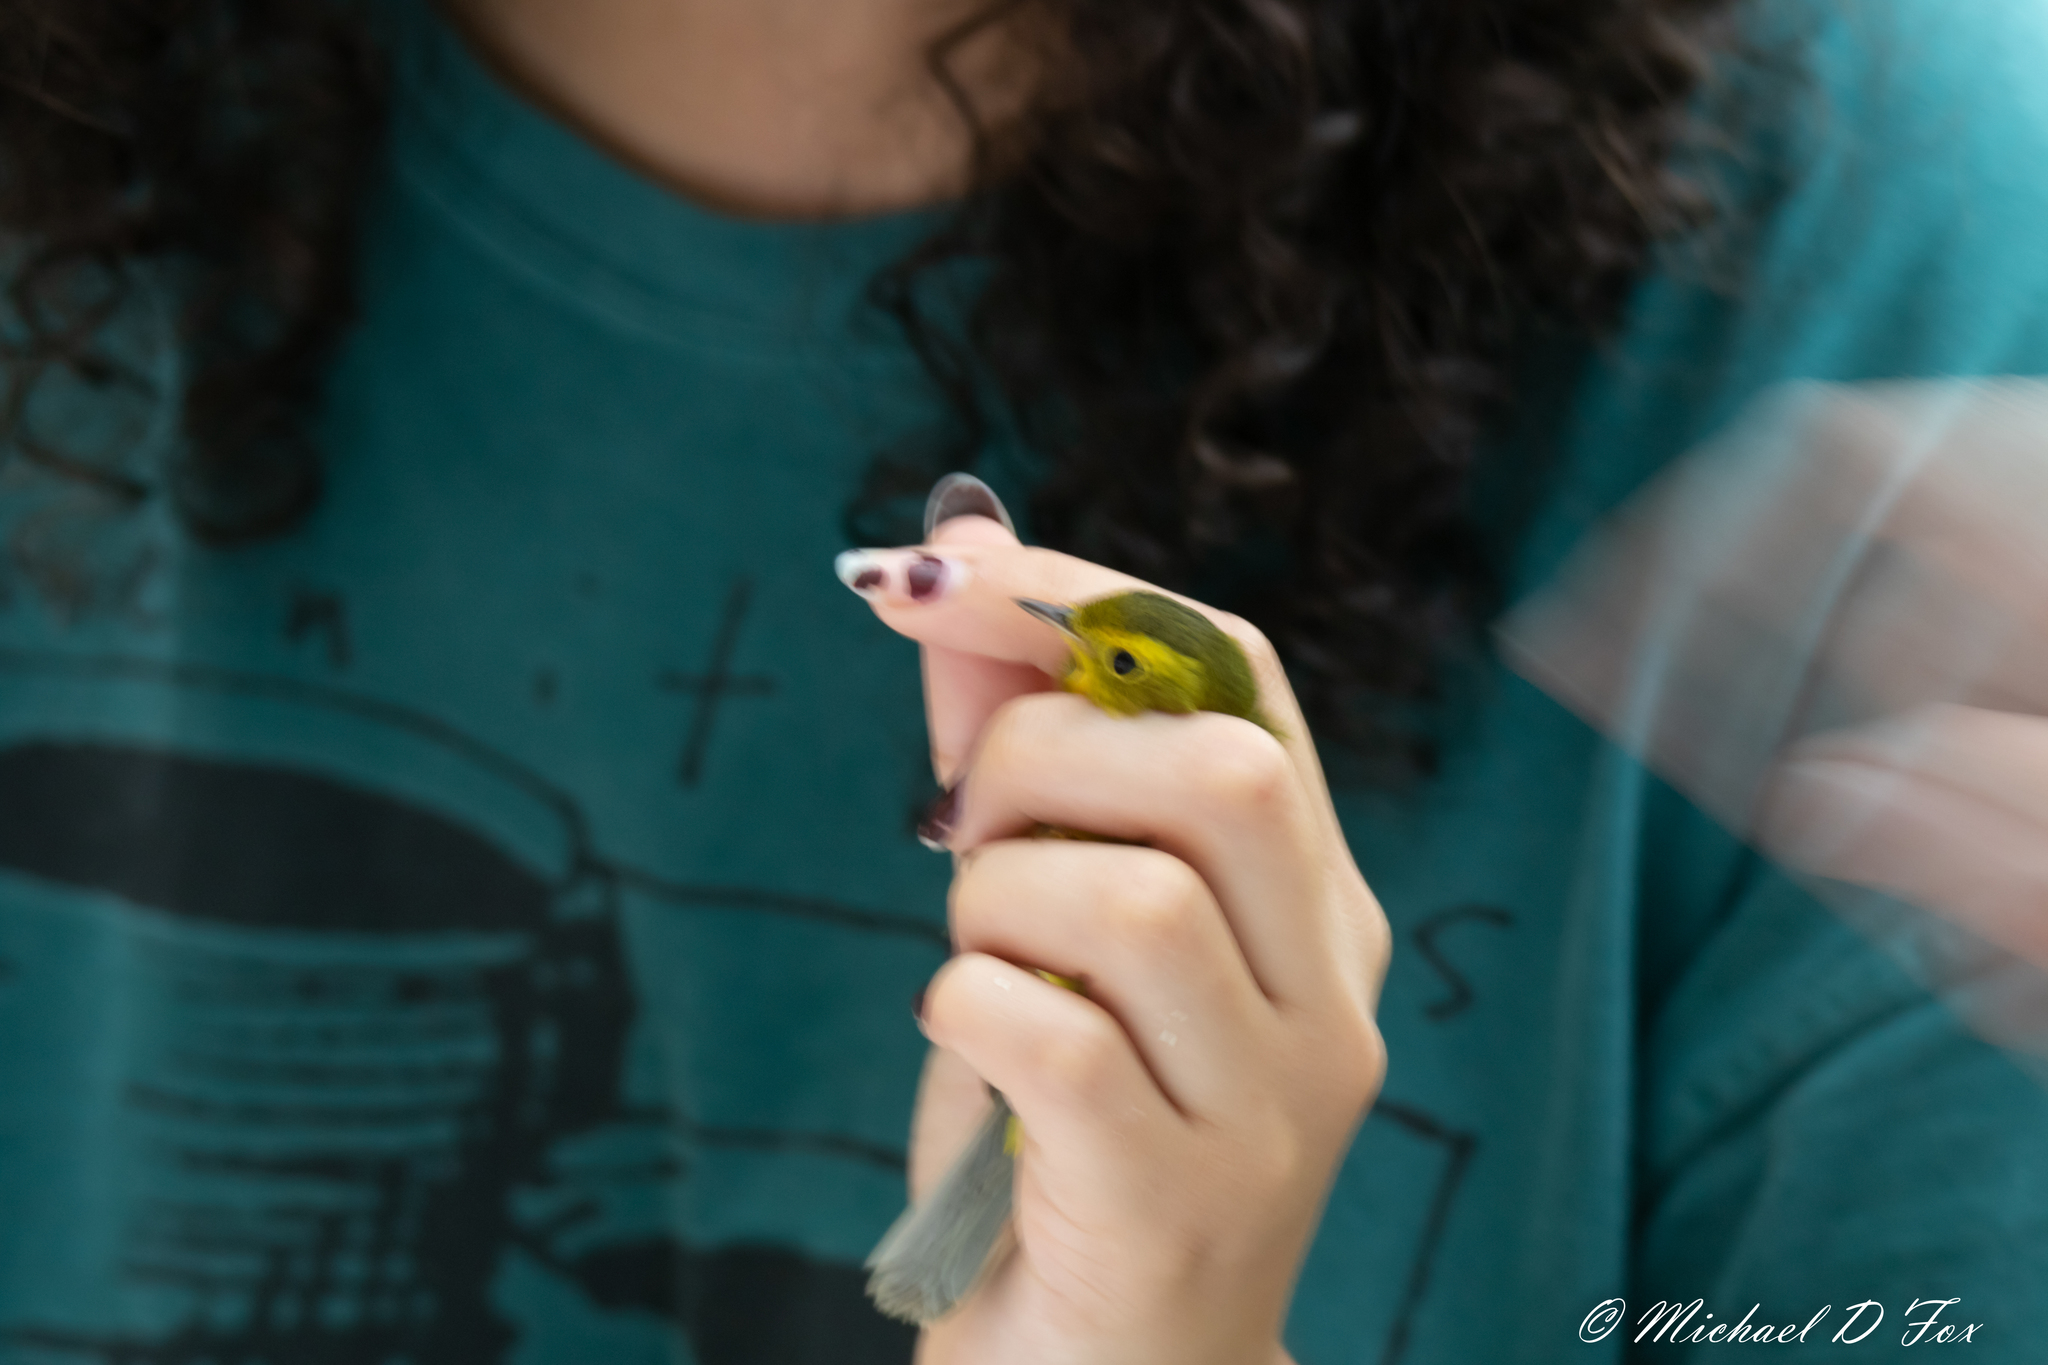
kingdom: Animalia
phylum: Chordata
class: Aves
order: Passeriformes
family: Parulidae
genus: Cardellina
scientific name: Cardellina pusilla
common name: Wilson's warbler
